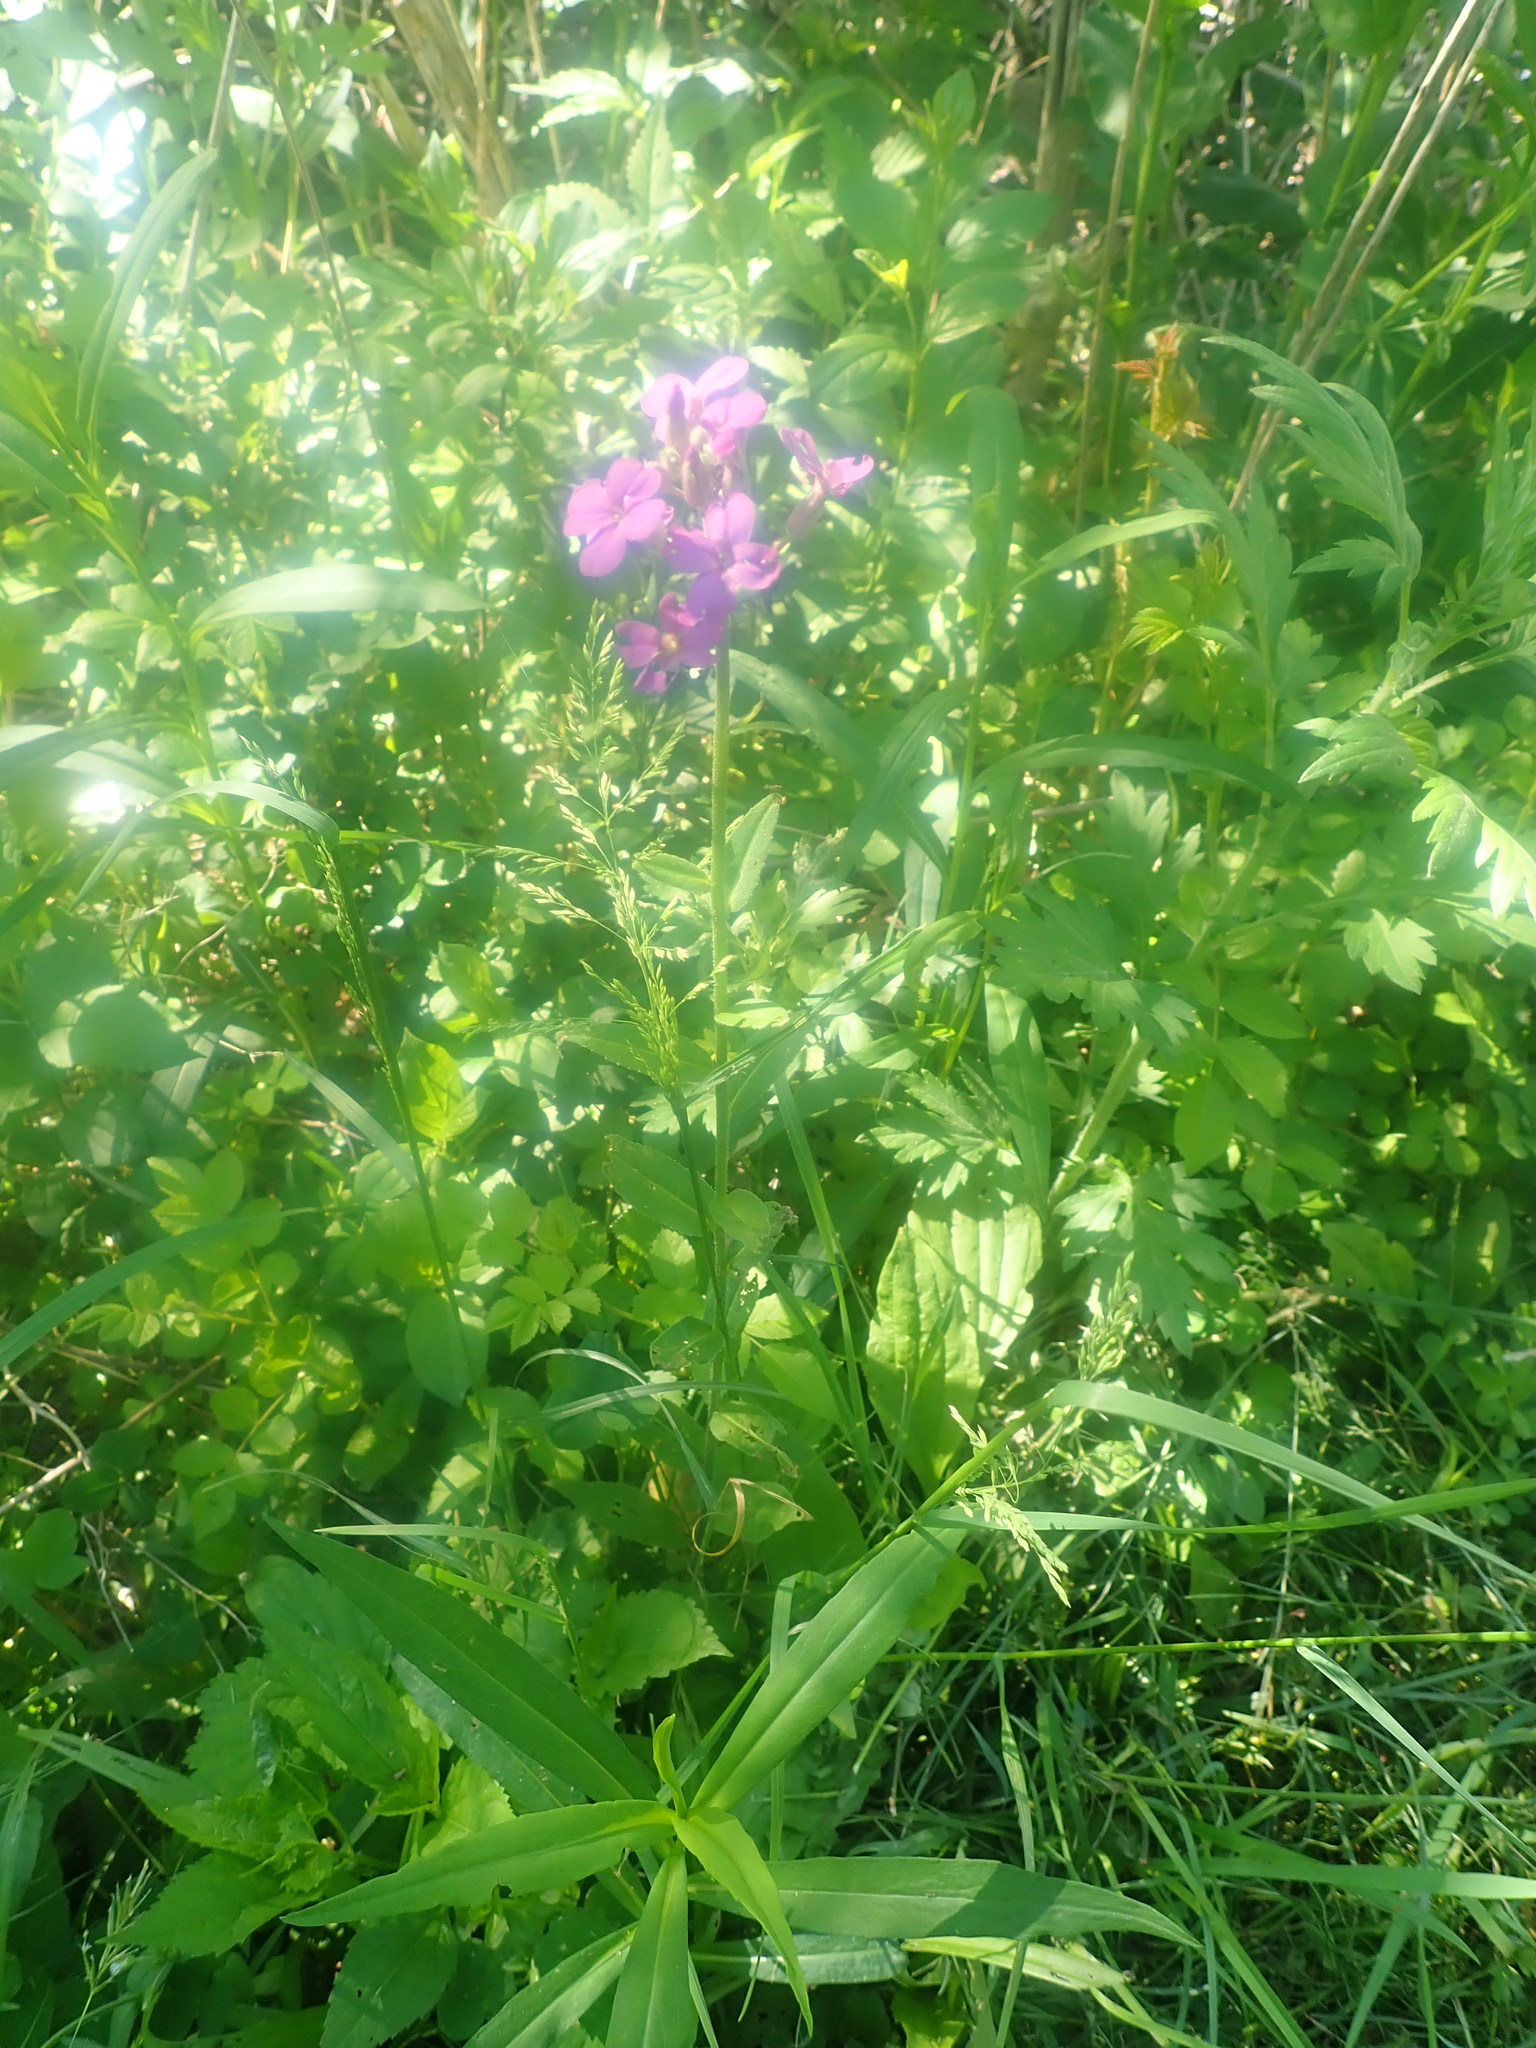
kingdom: Plantae
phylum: Tracheophyta
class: Magnoliopsida
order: Brassicales
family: Brassicaceae
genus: Hesperis
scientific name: Hesperis matronalis
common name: Dame's-violet
